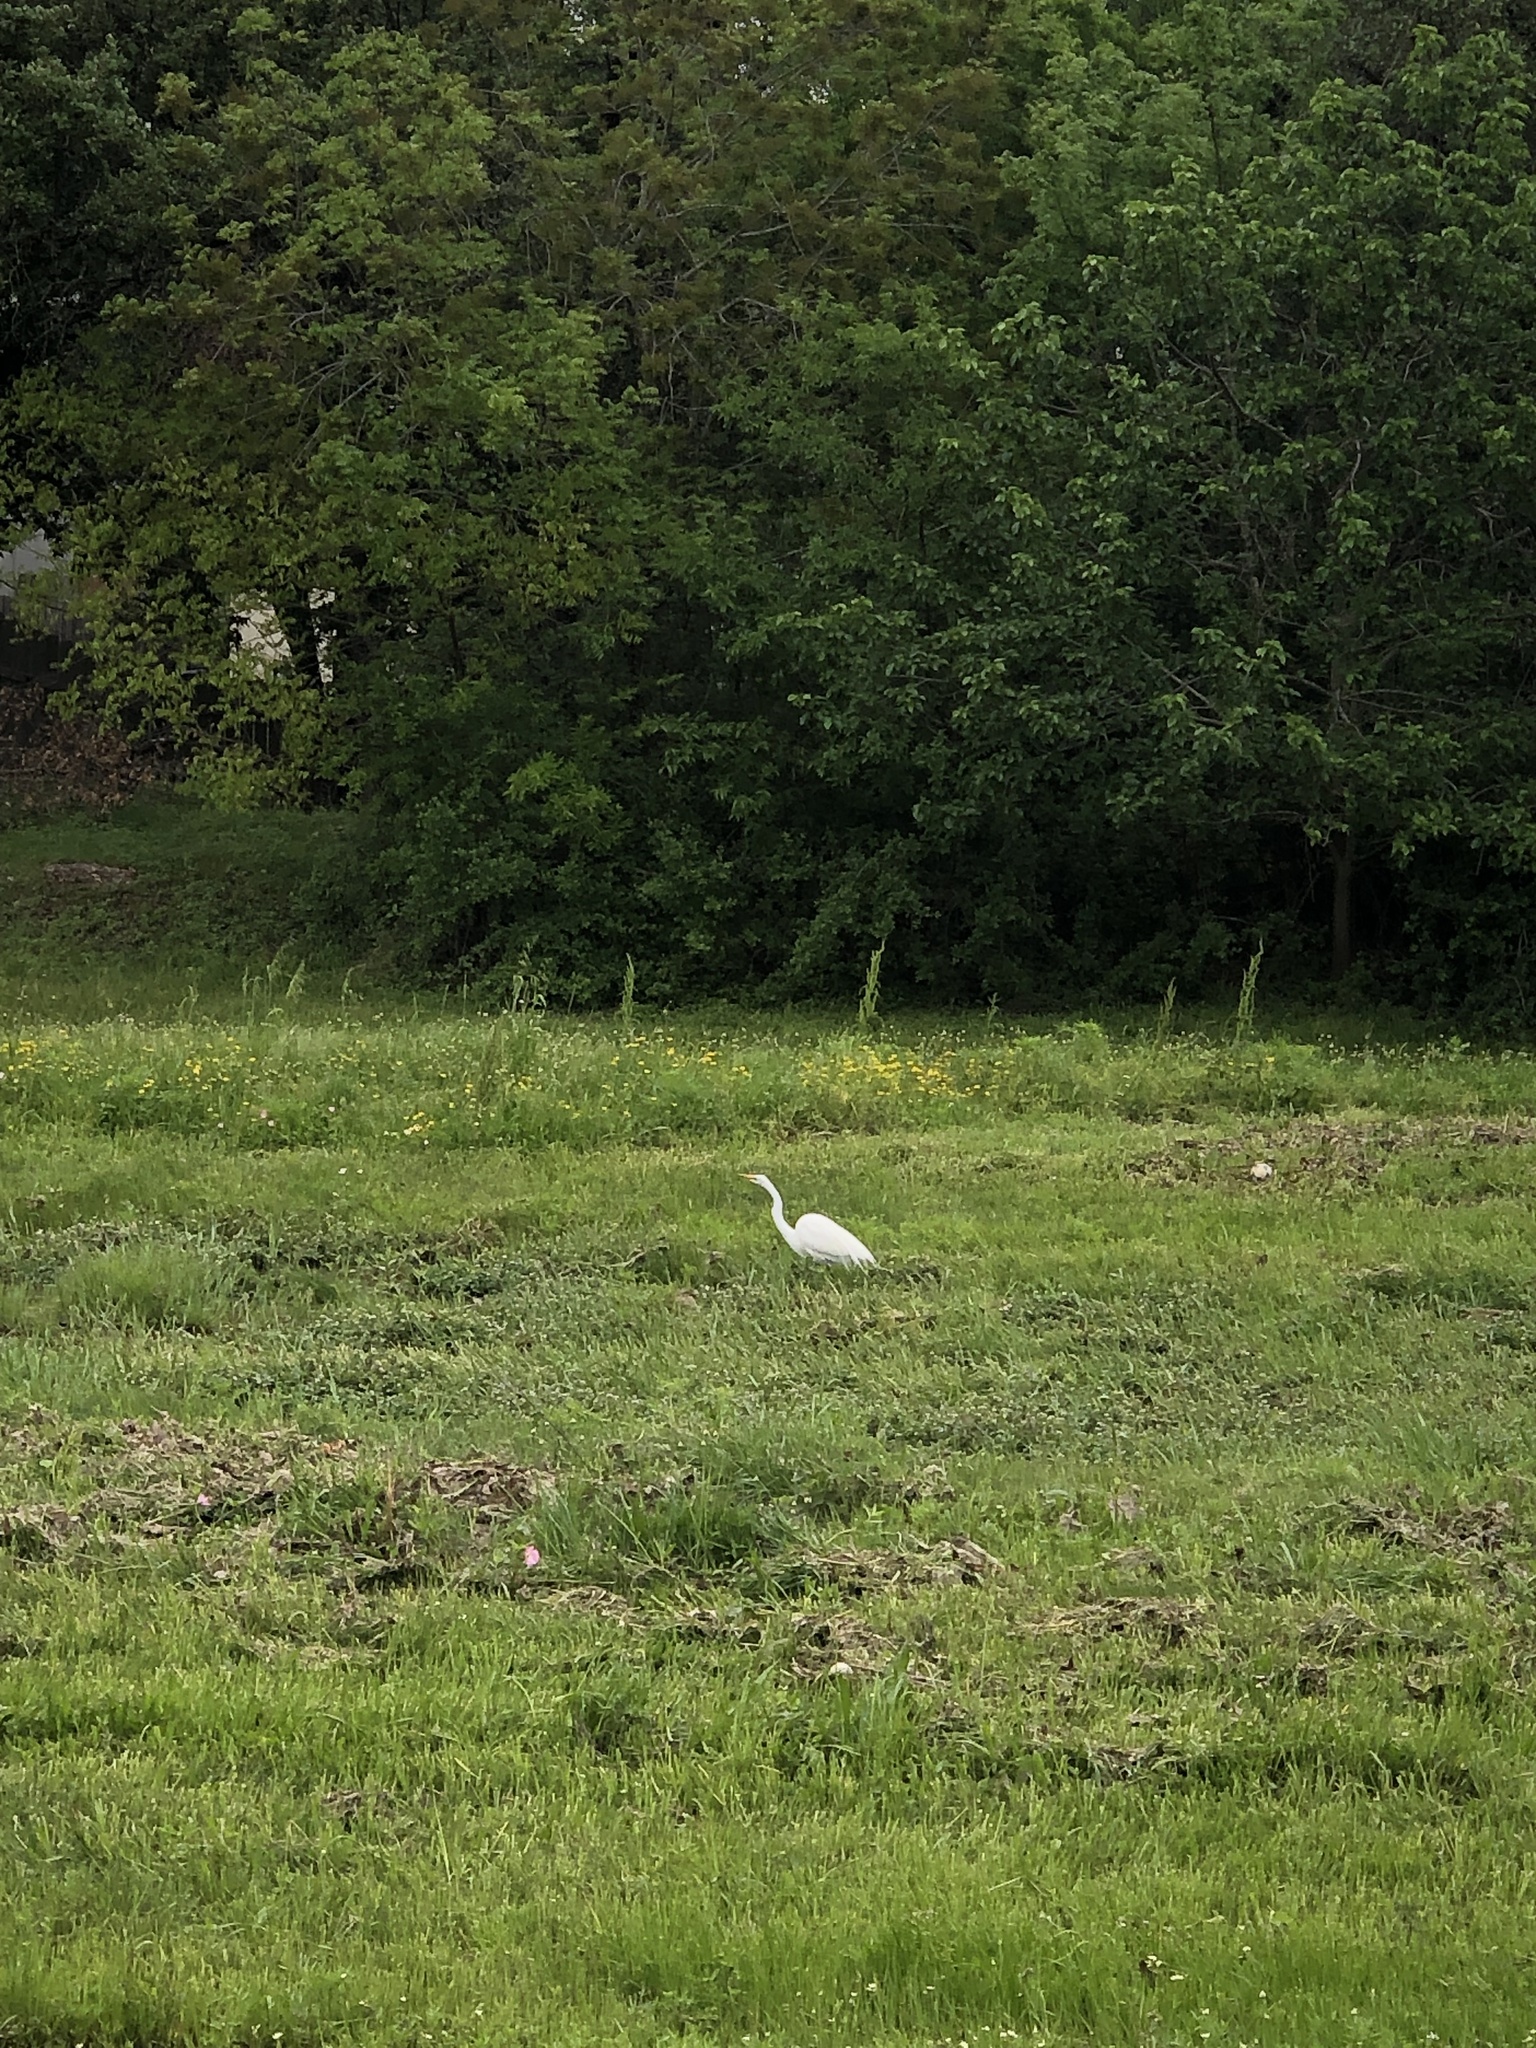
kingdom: Animalia
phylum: Chordata
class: Aves
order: Pelecaniformes
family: Ardeidae
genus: Ardea
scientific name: Ardea alba
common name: Great egret
